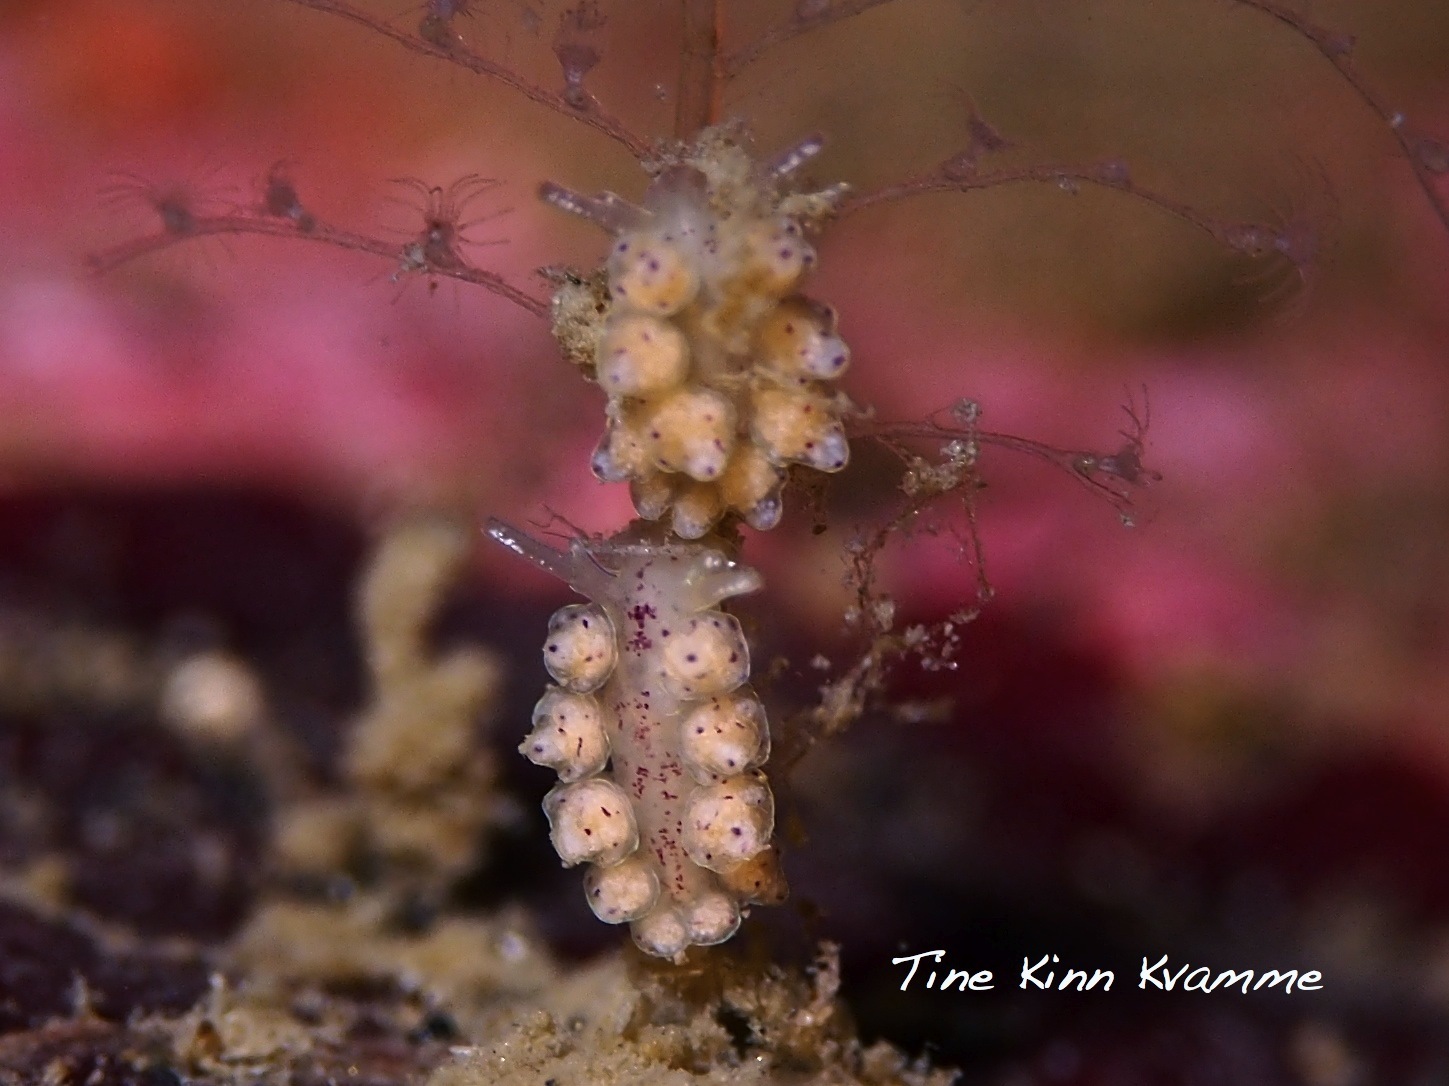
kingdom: Animalia
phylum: Mollusca
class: Gastropoda
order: Nudibranchia
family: Dotidae
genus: Doto
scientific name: Doto dunnei
